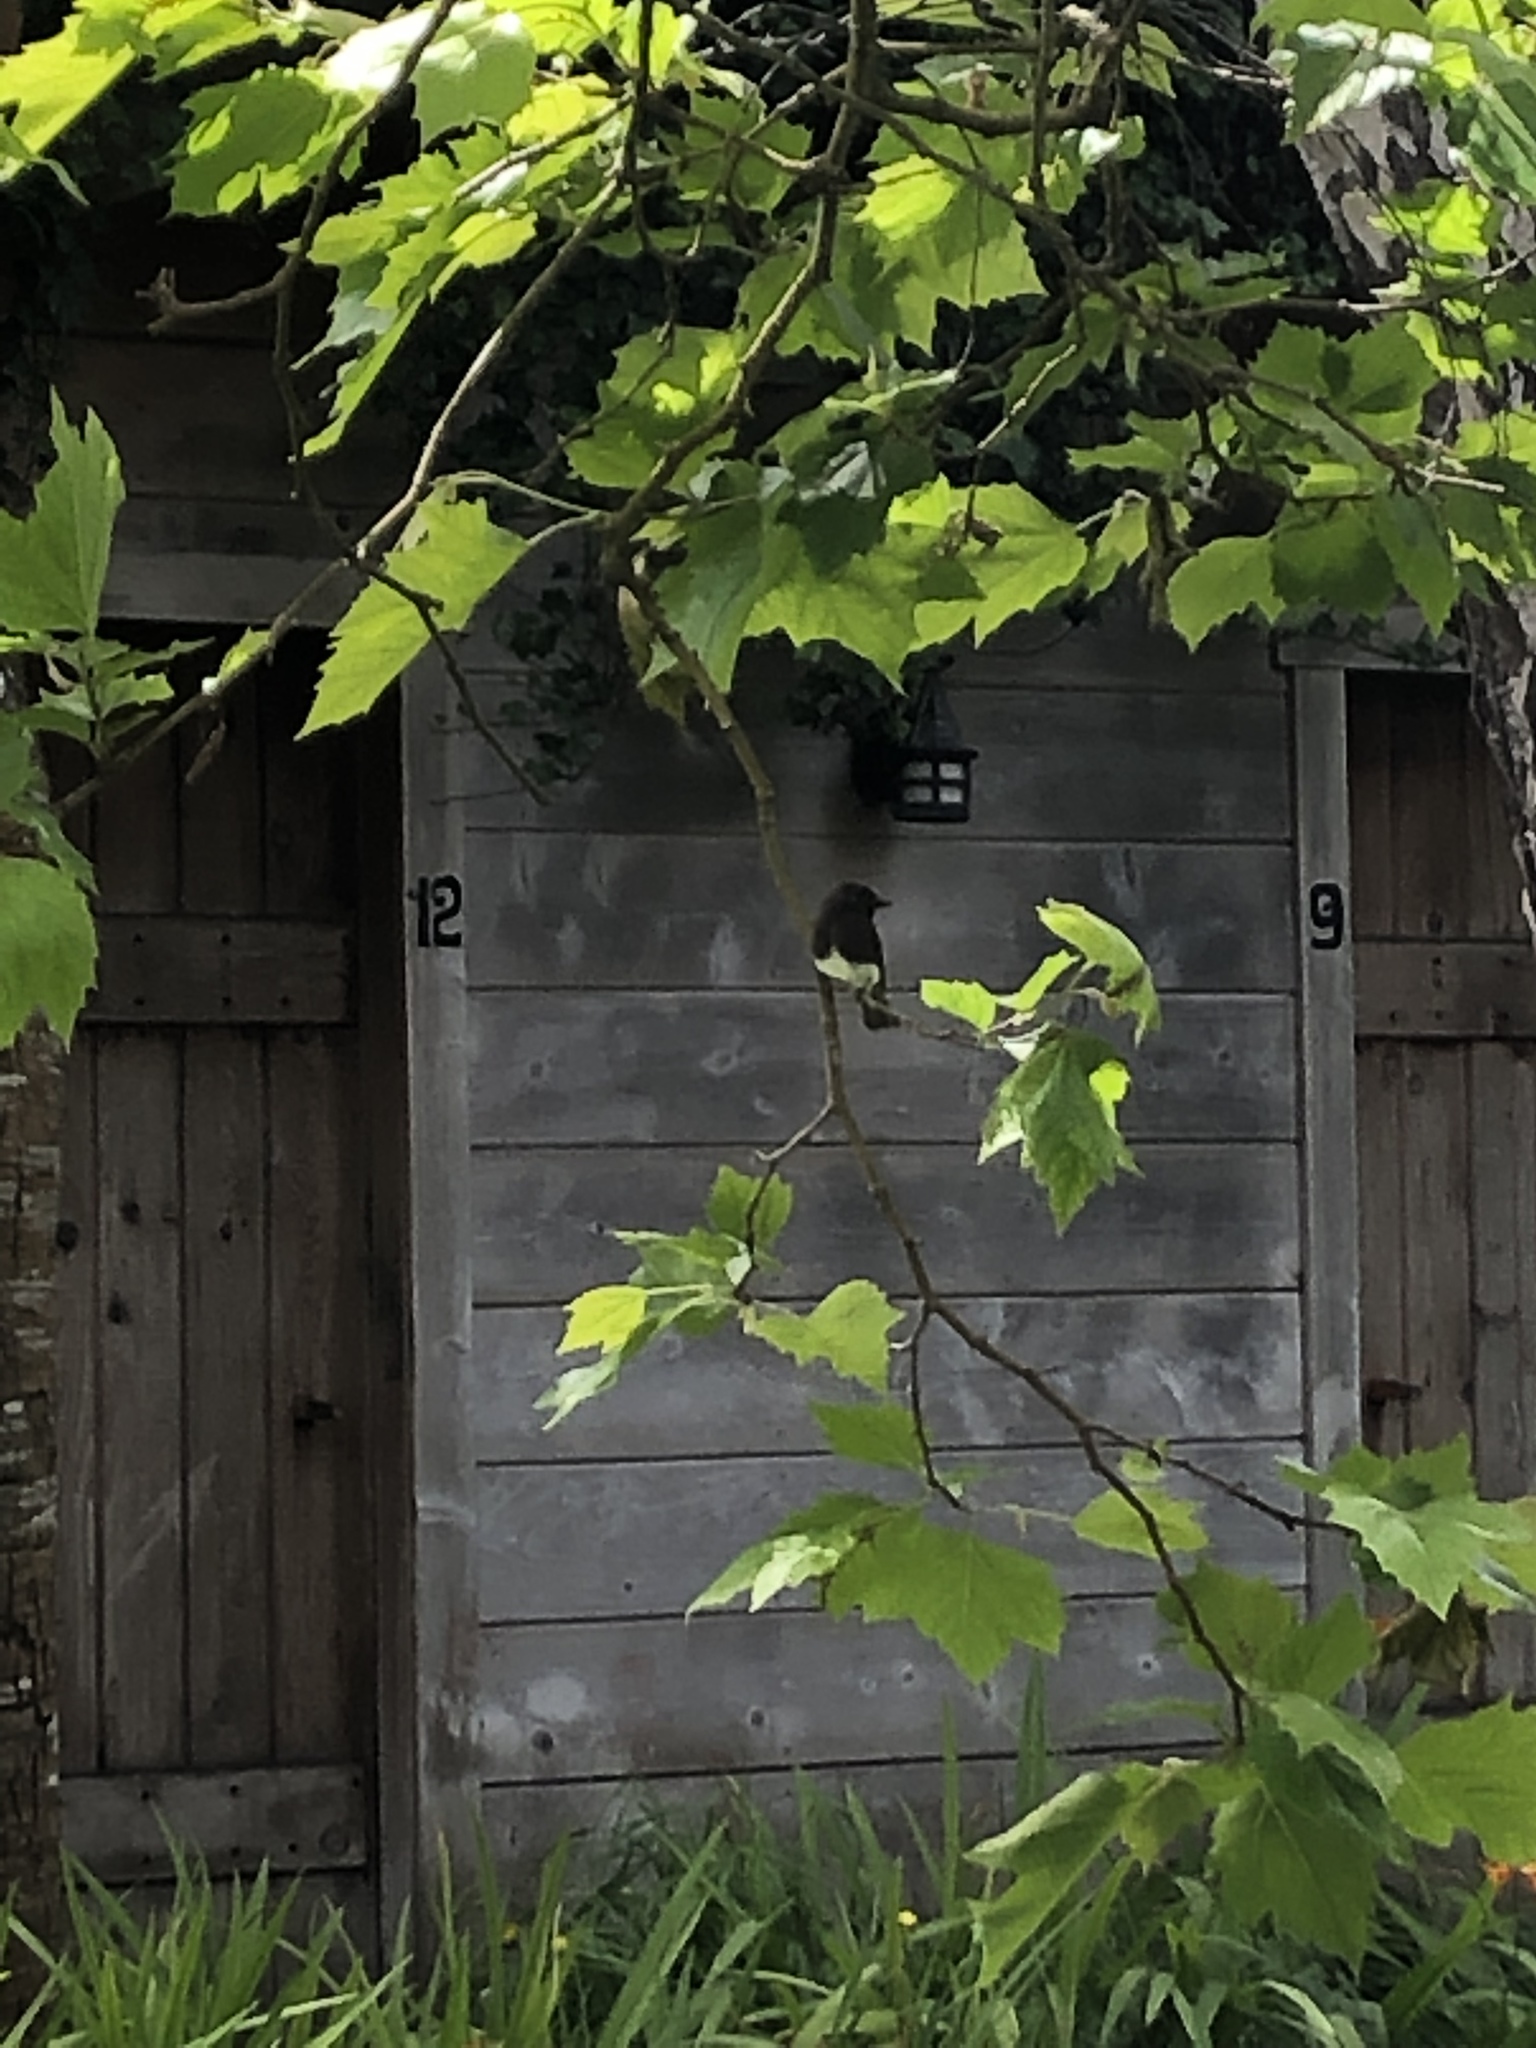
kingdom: Animalia
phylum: Chordata
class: Aves
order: Passeriformes
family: Tyrannidae
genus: Sayornis
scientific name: Sayornis nigricans
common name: Black phoebe
